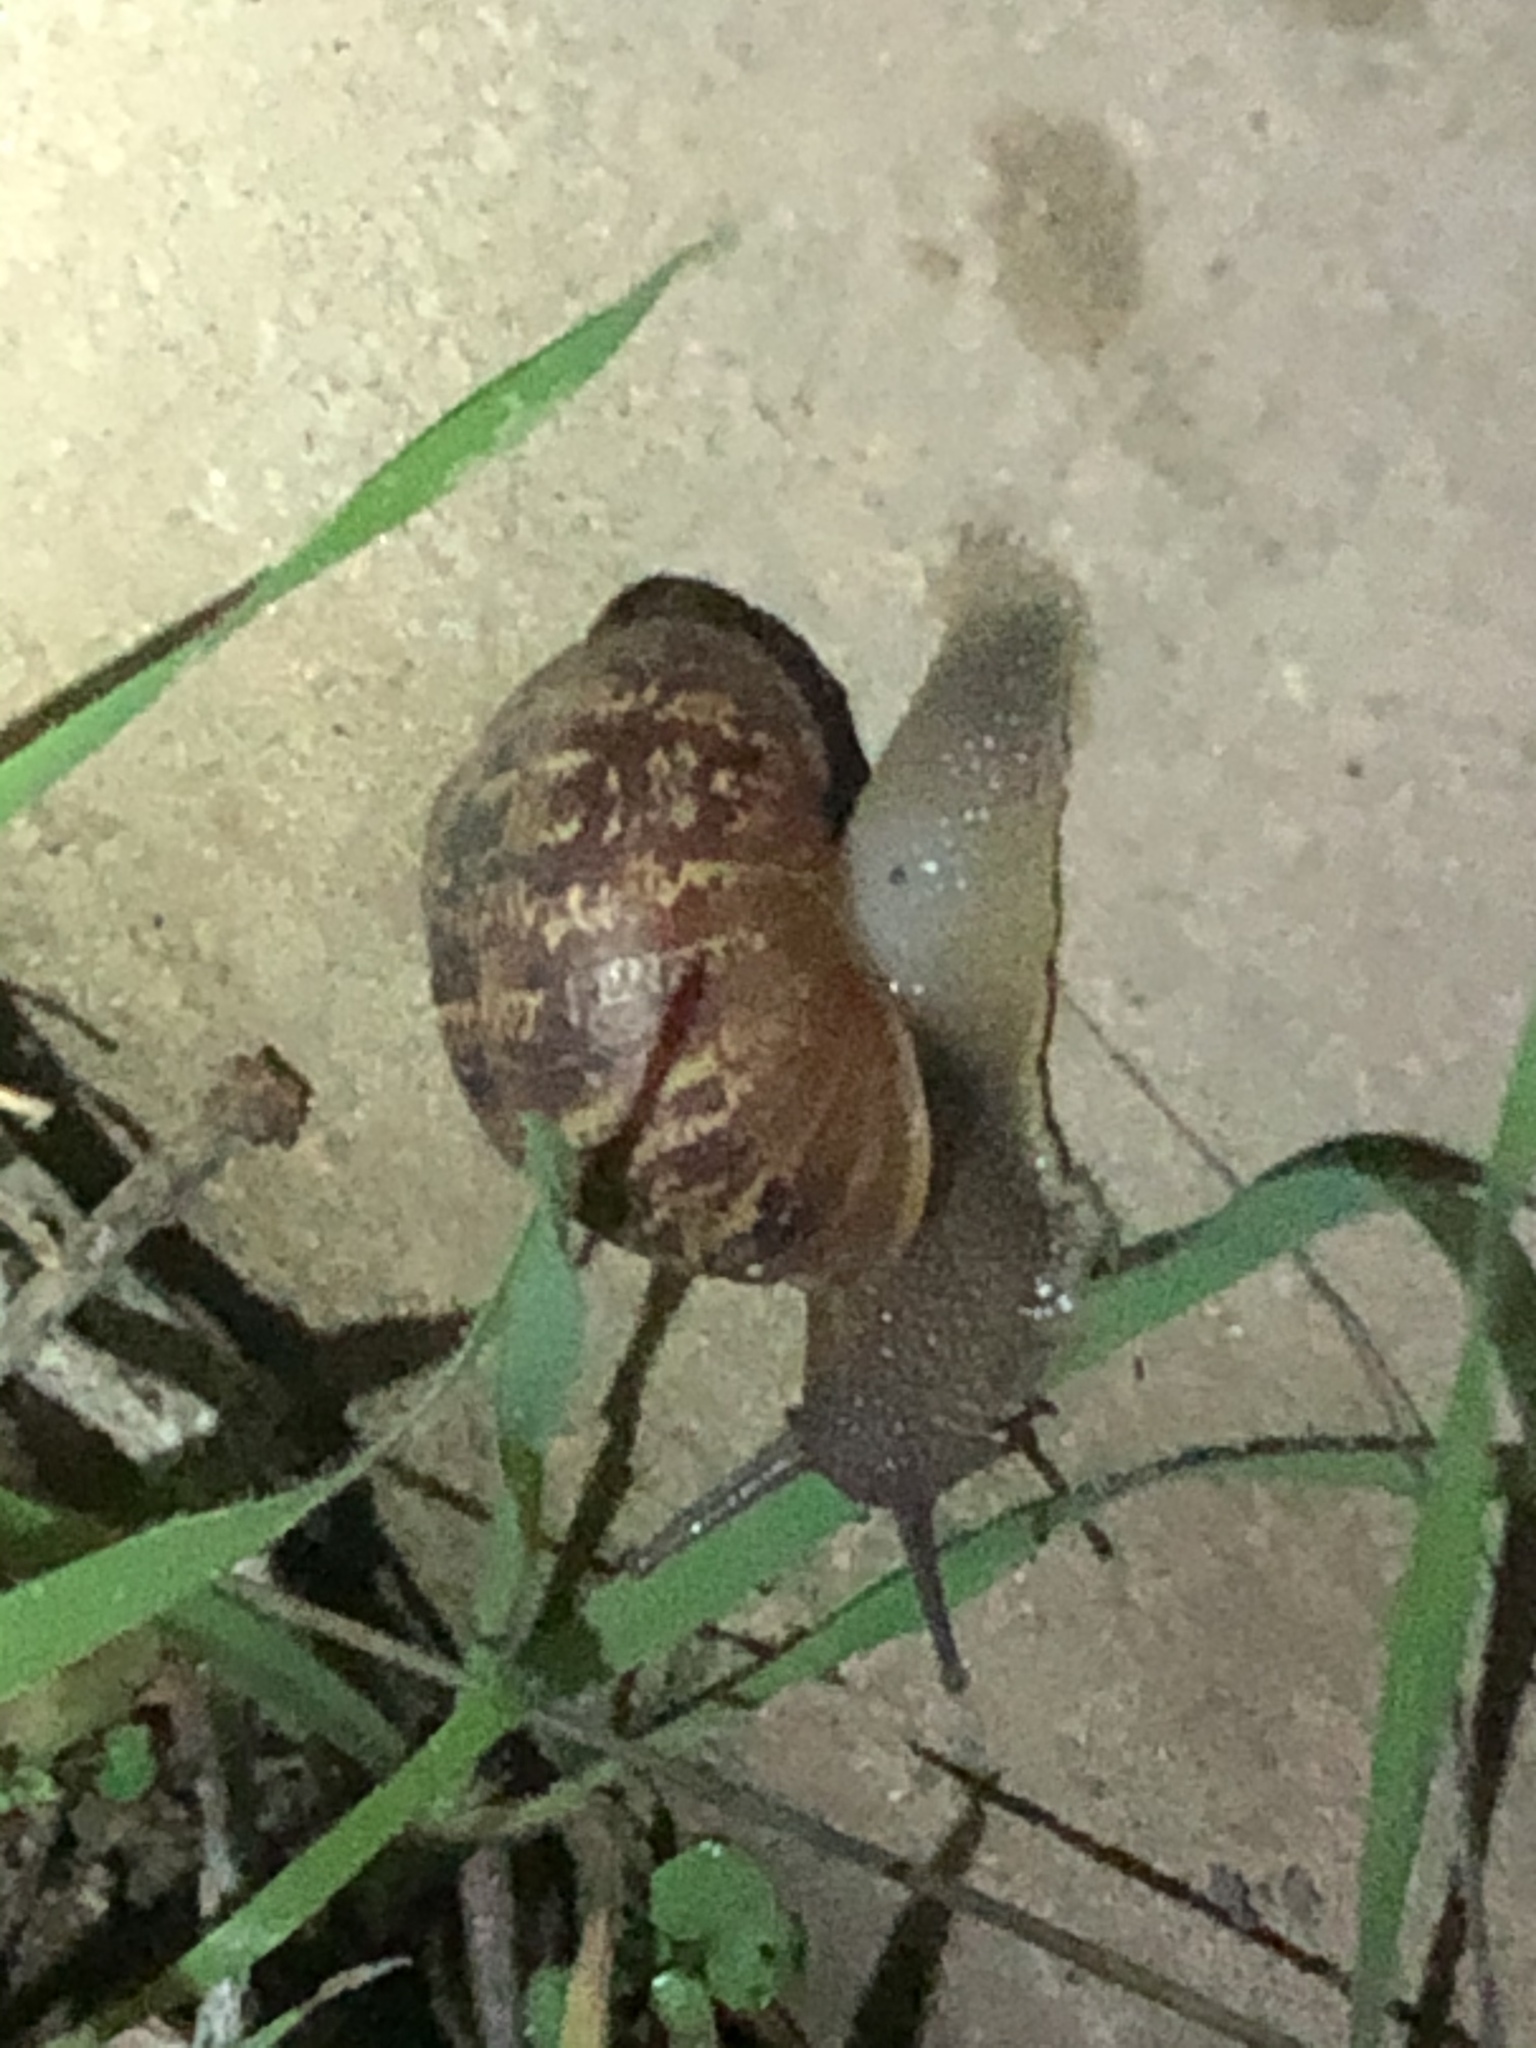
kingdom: Animalia
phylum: Mollusca
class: Gastropoda
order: Stylommatophora
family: Helicidae
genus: Cornu
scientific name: Cornu aspersum
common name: Brown garden snail
